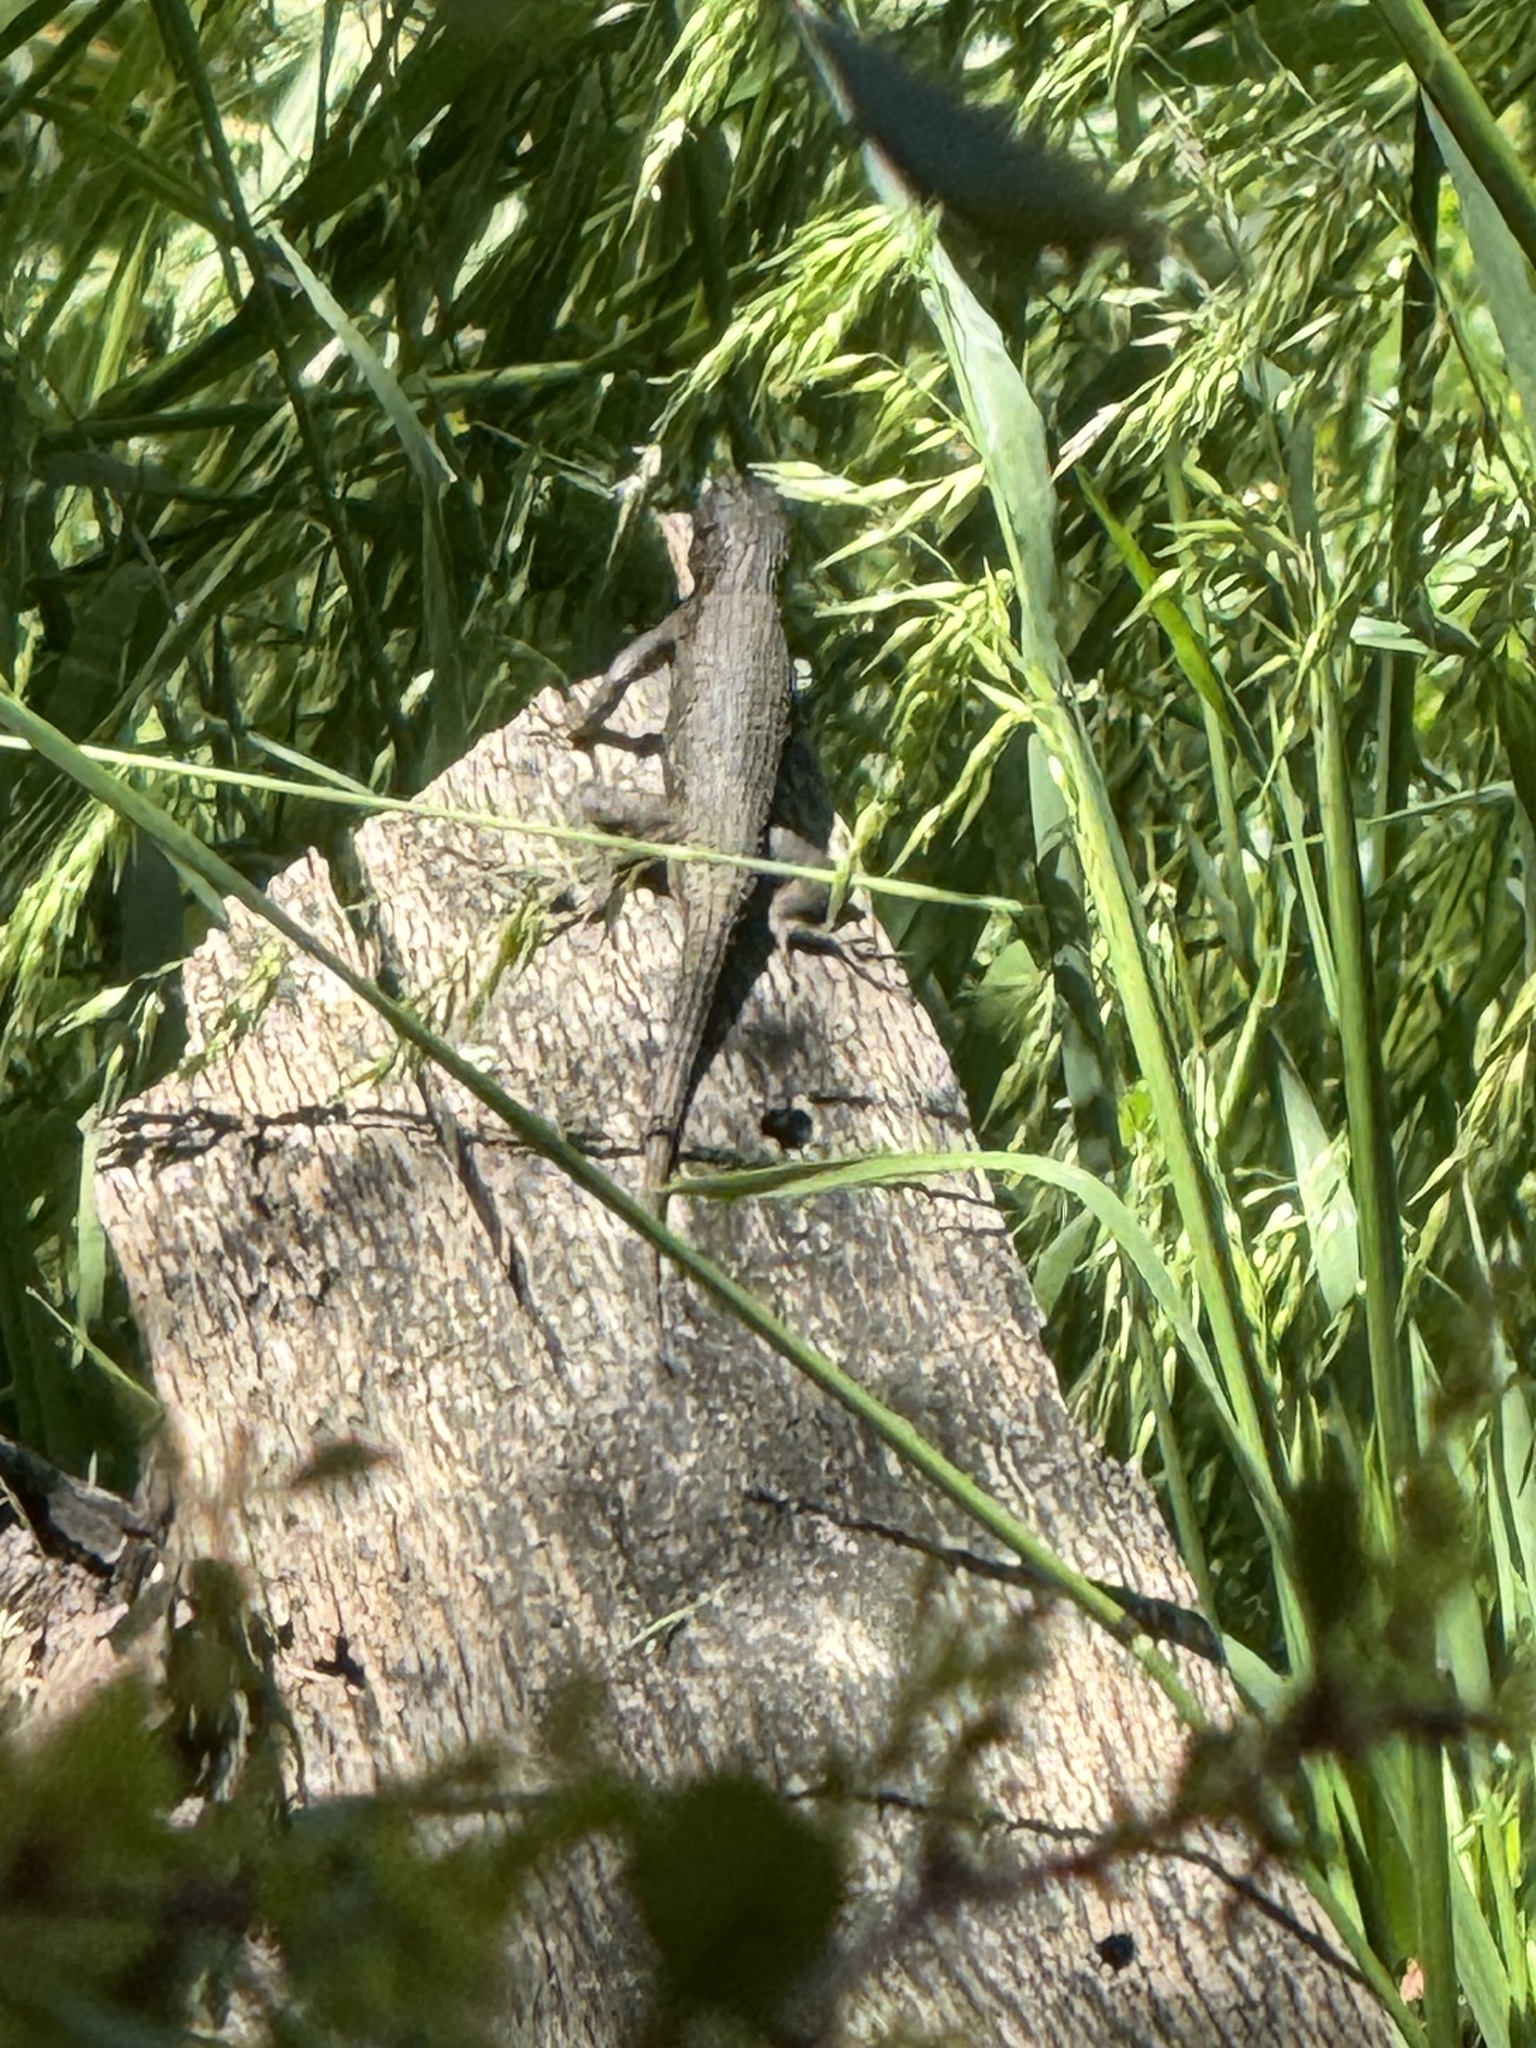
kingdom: Animalia
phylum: Chordata
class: Squamata
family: Phrynosomatidae
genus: Sceloporus
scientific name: Sceloporus occidentalis
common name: Western fence lizard
